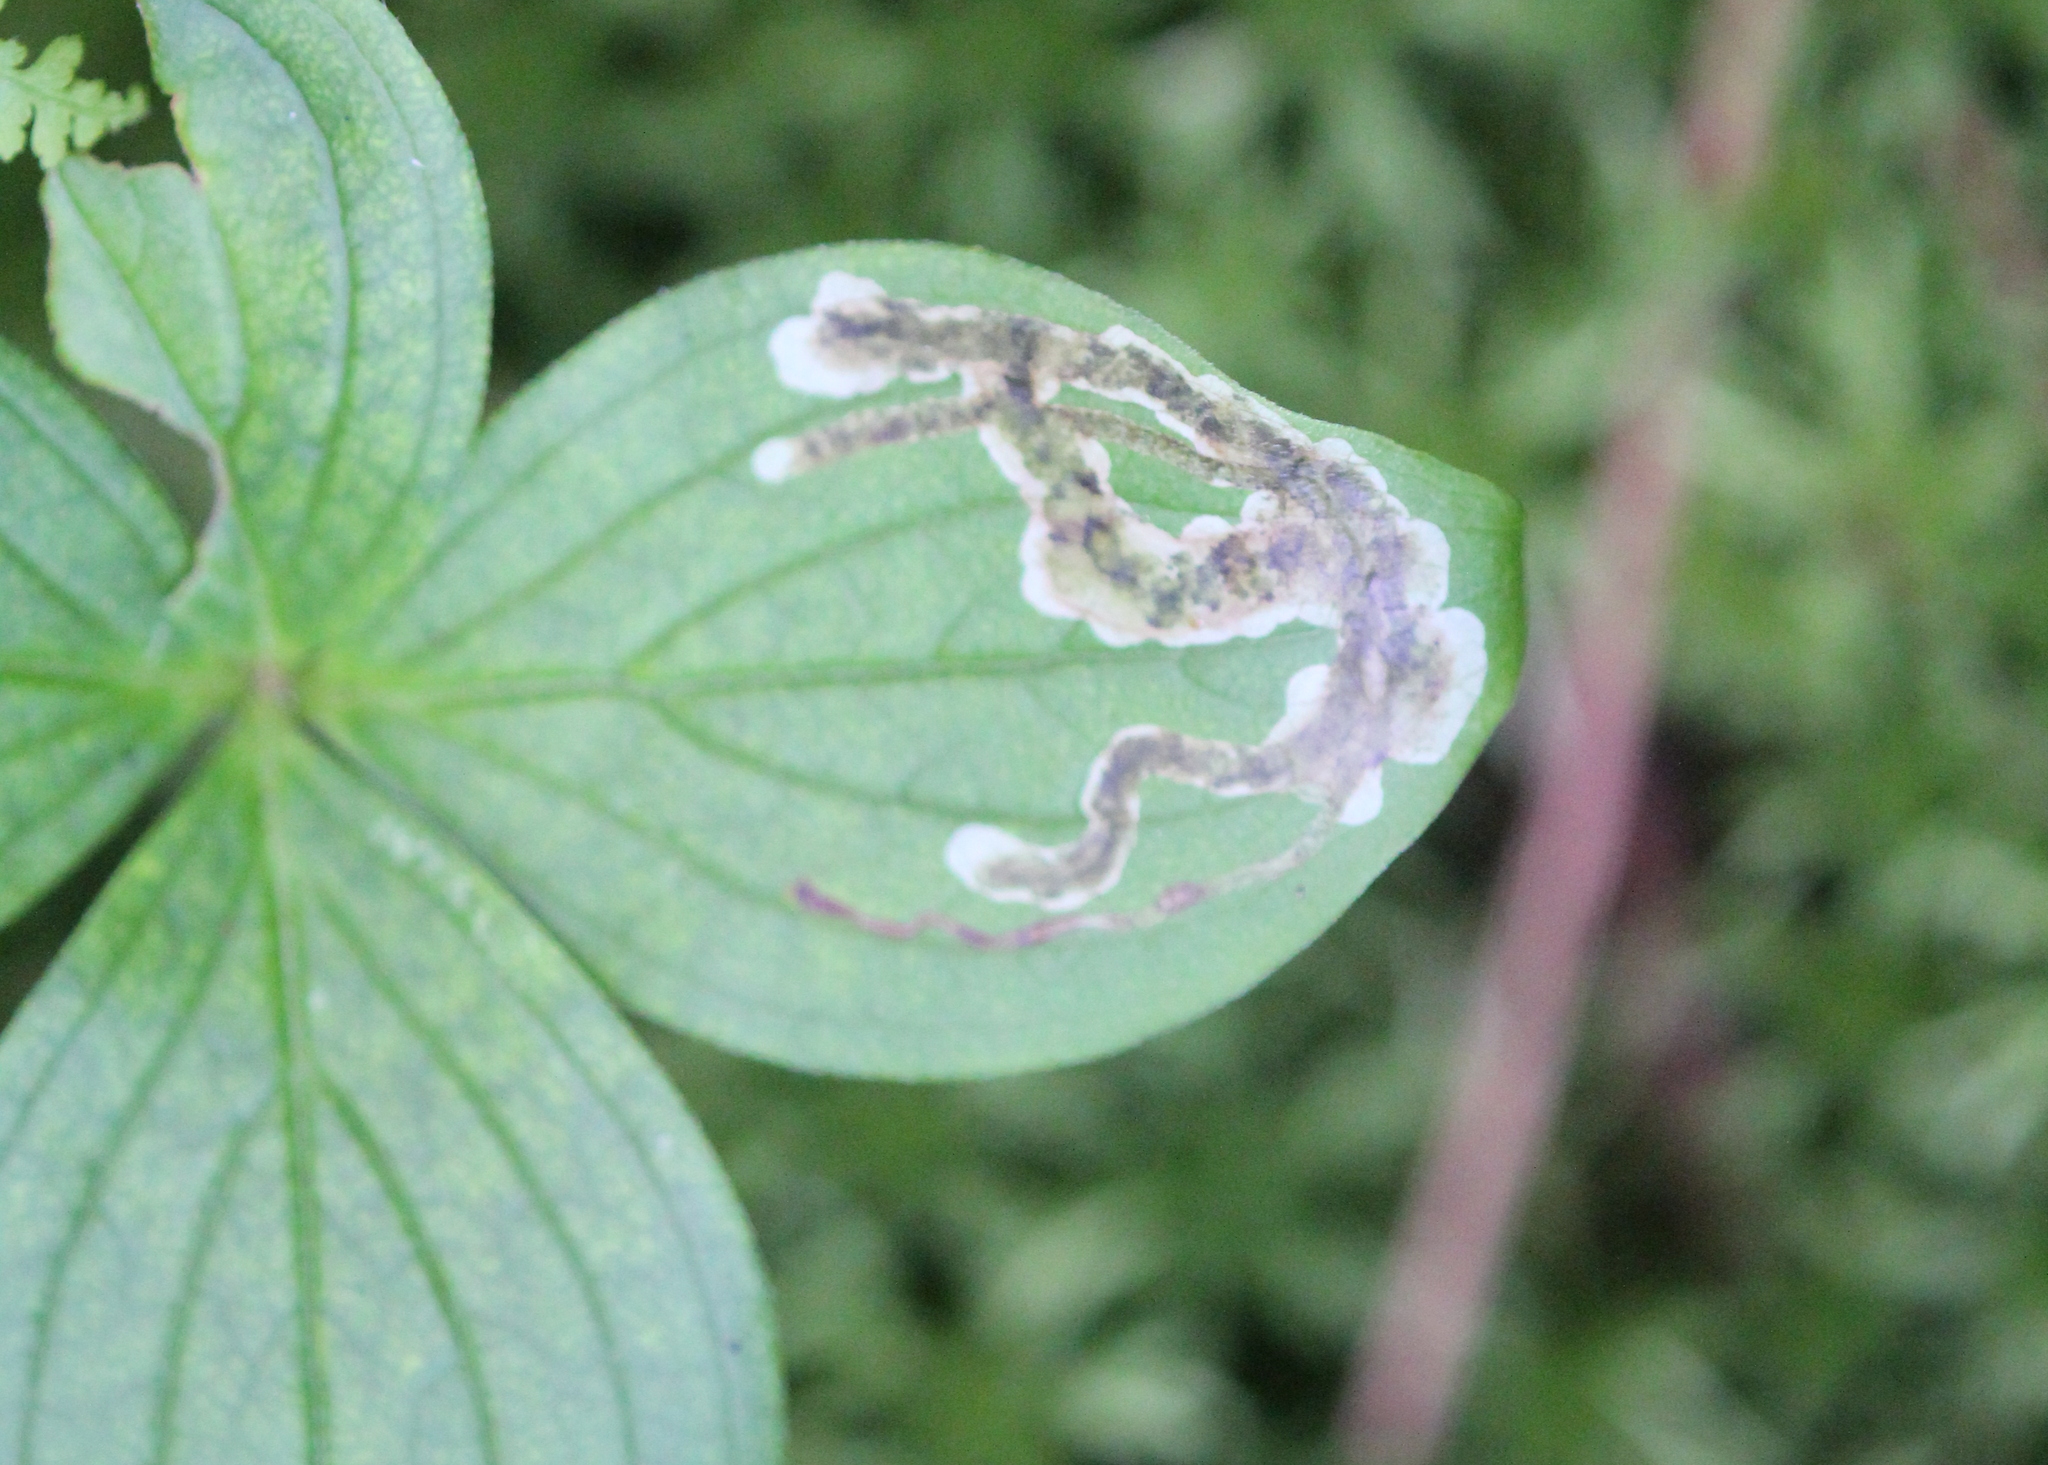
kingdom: Animalia
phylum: Arthropoda
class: Insecta
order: Diptera
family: Agromyzidae
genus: Phytomyza
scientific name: Phytomyza agromyzina
